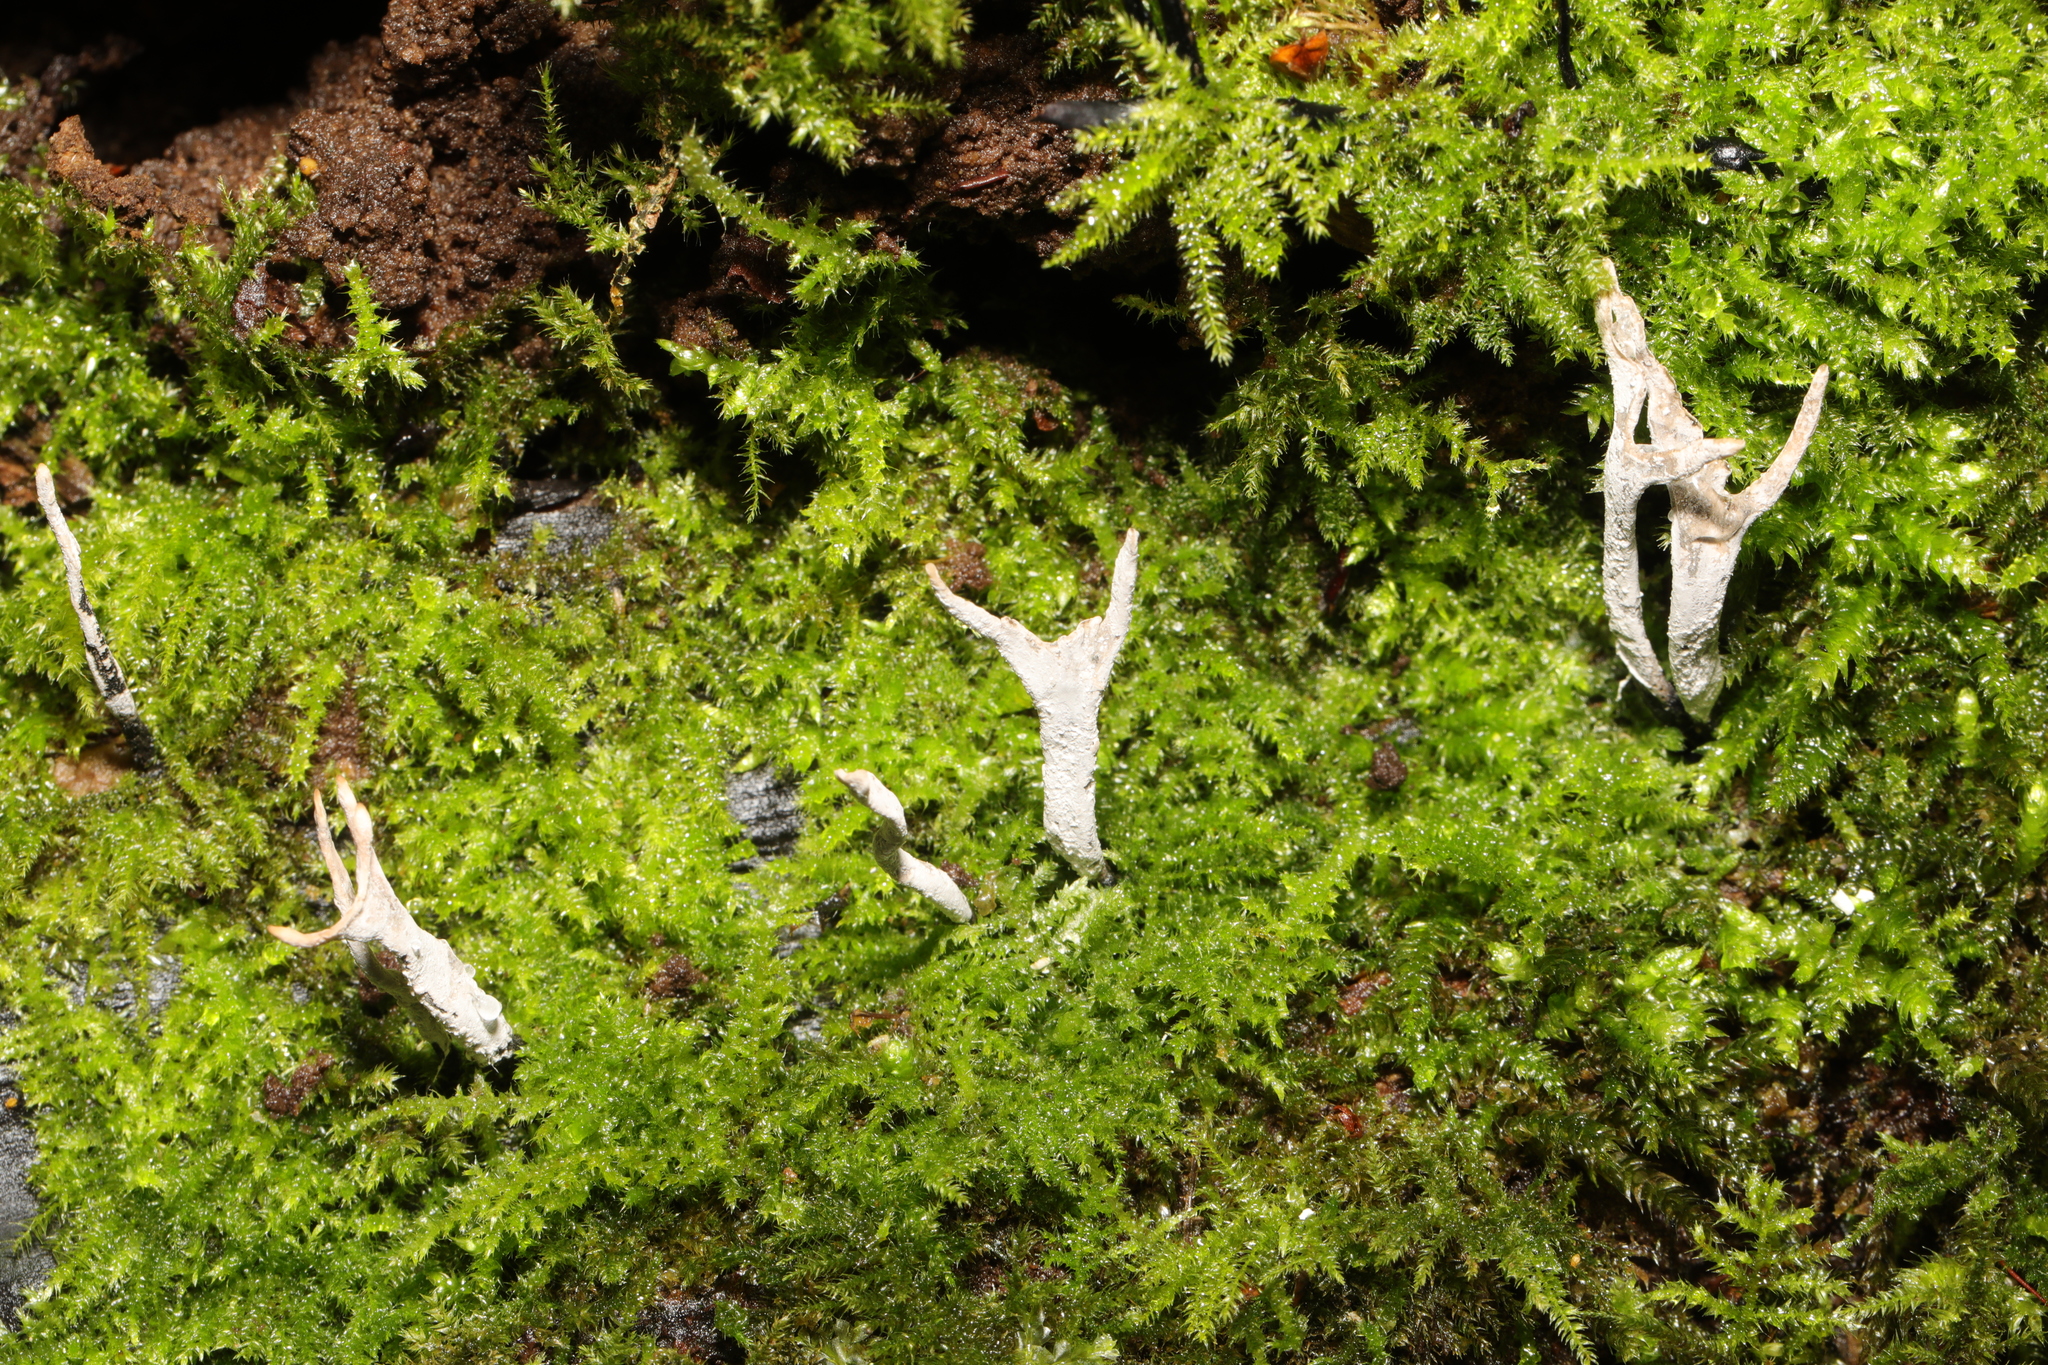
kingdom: Fungi
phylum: Ascomycota
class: Sordariomycetes
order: Xylariales
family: Xylariaceae
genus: Xylaria
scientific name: Xylaria hypoxylon
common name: Candle-snuff fungus
